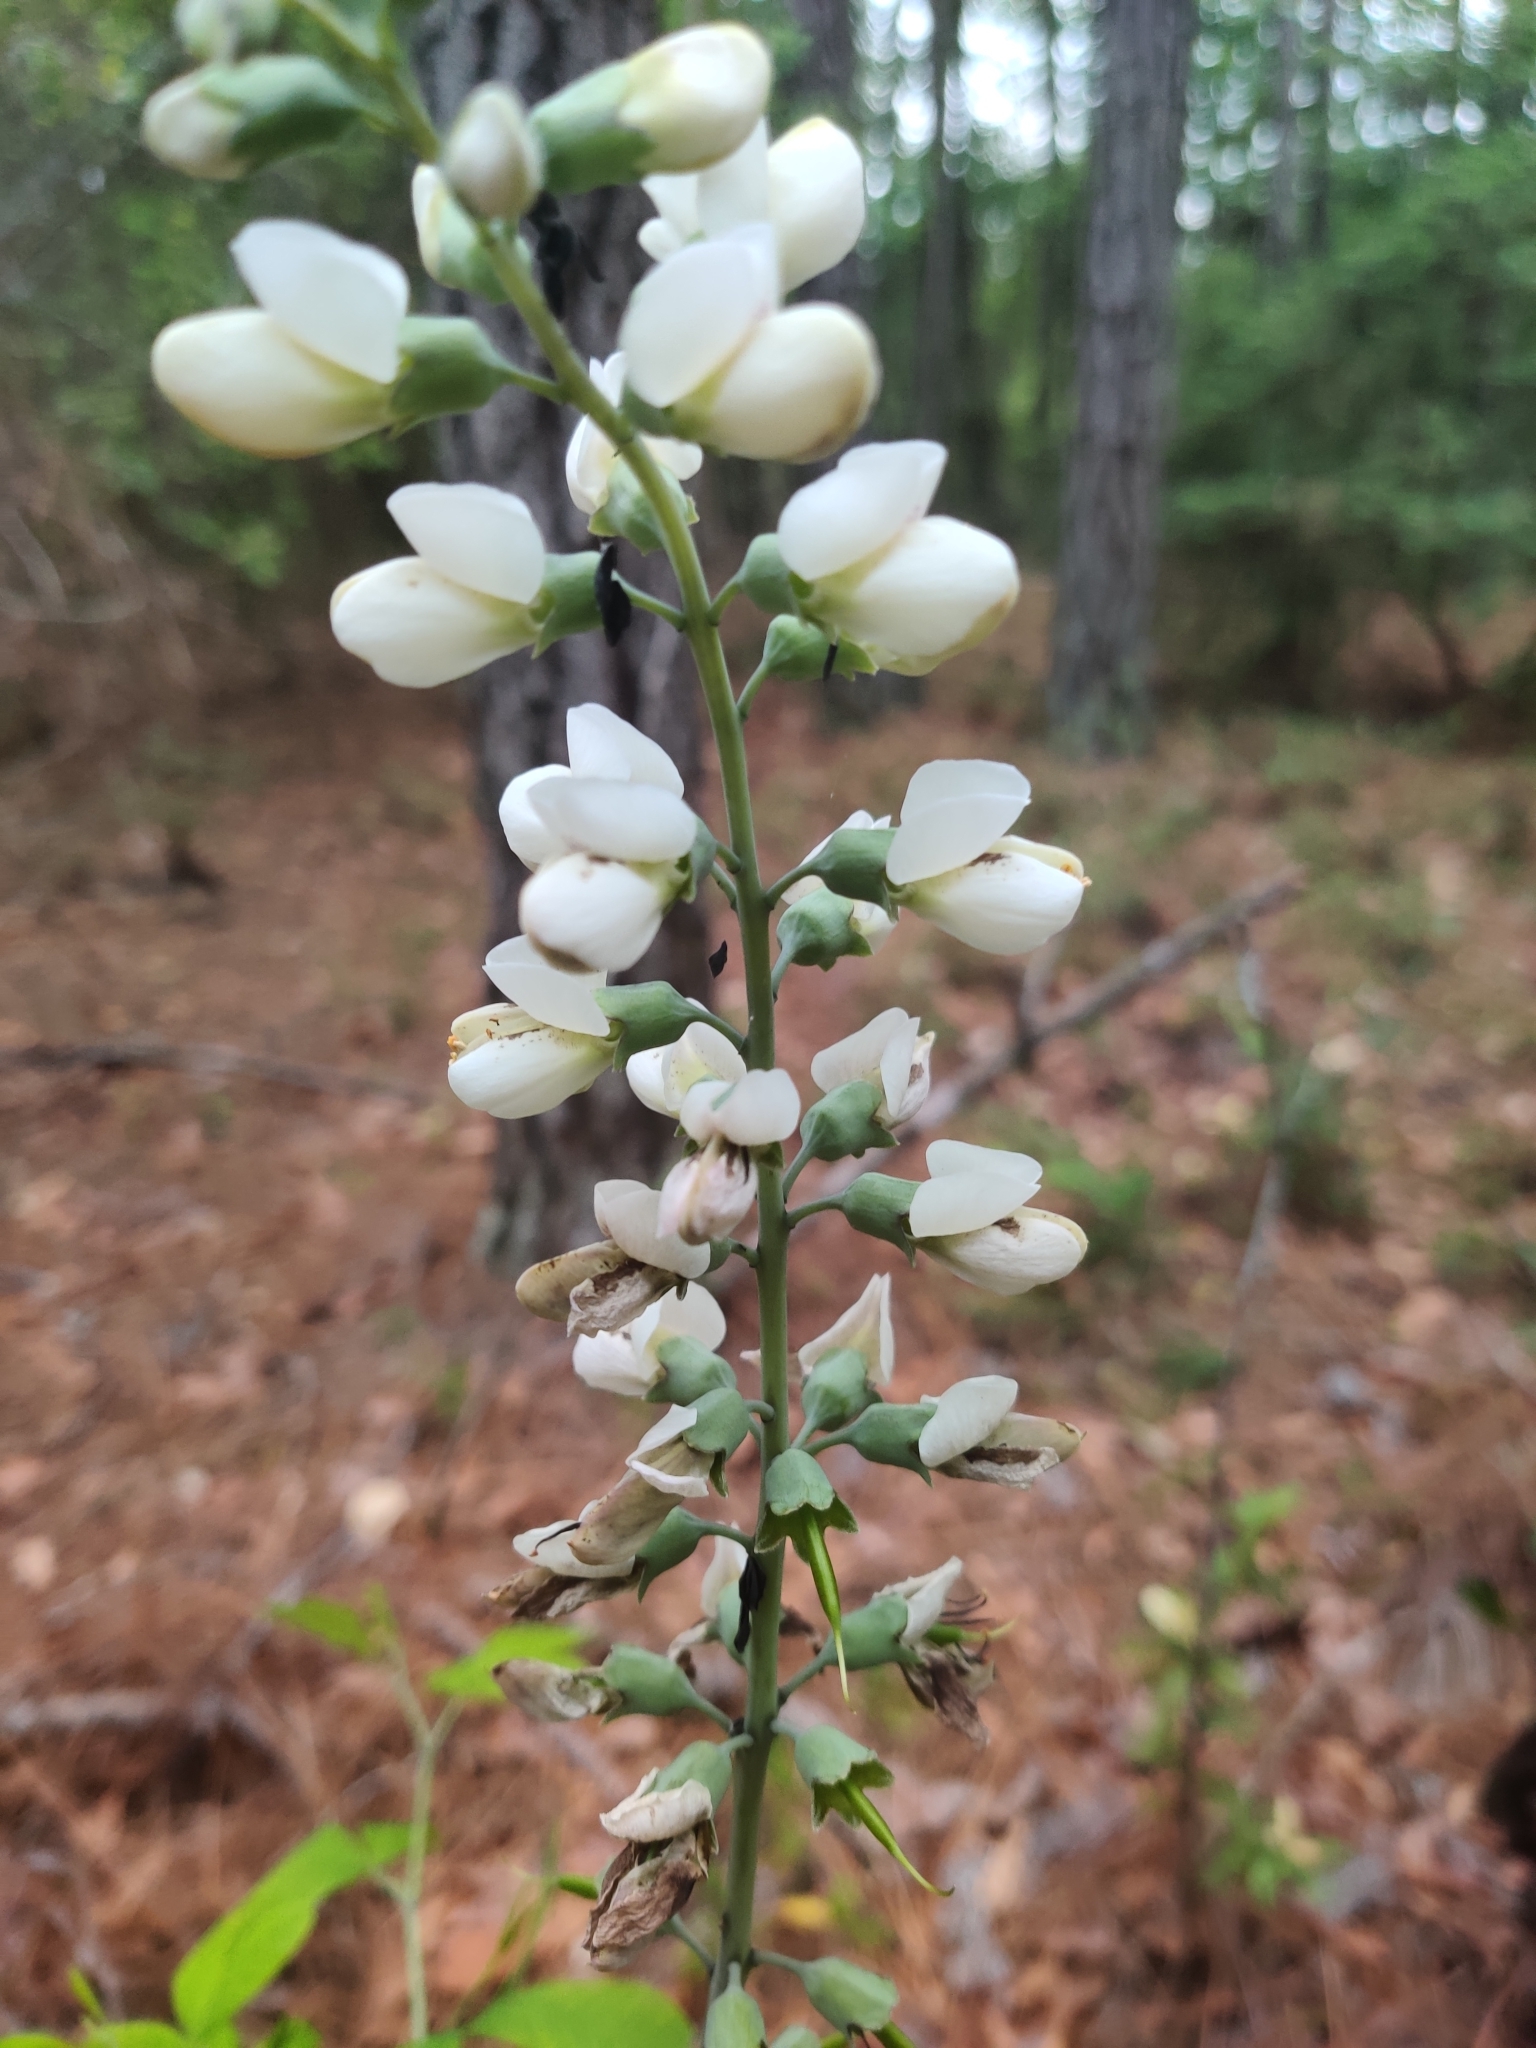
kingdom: Plantae
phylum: Tracheophyta
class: Magnoliopsida
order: Fabales
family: Fabaceae
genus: Baptisia
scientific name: Baptisia alba
